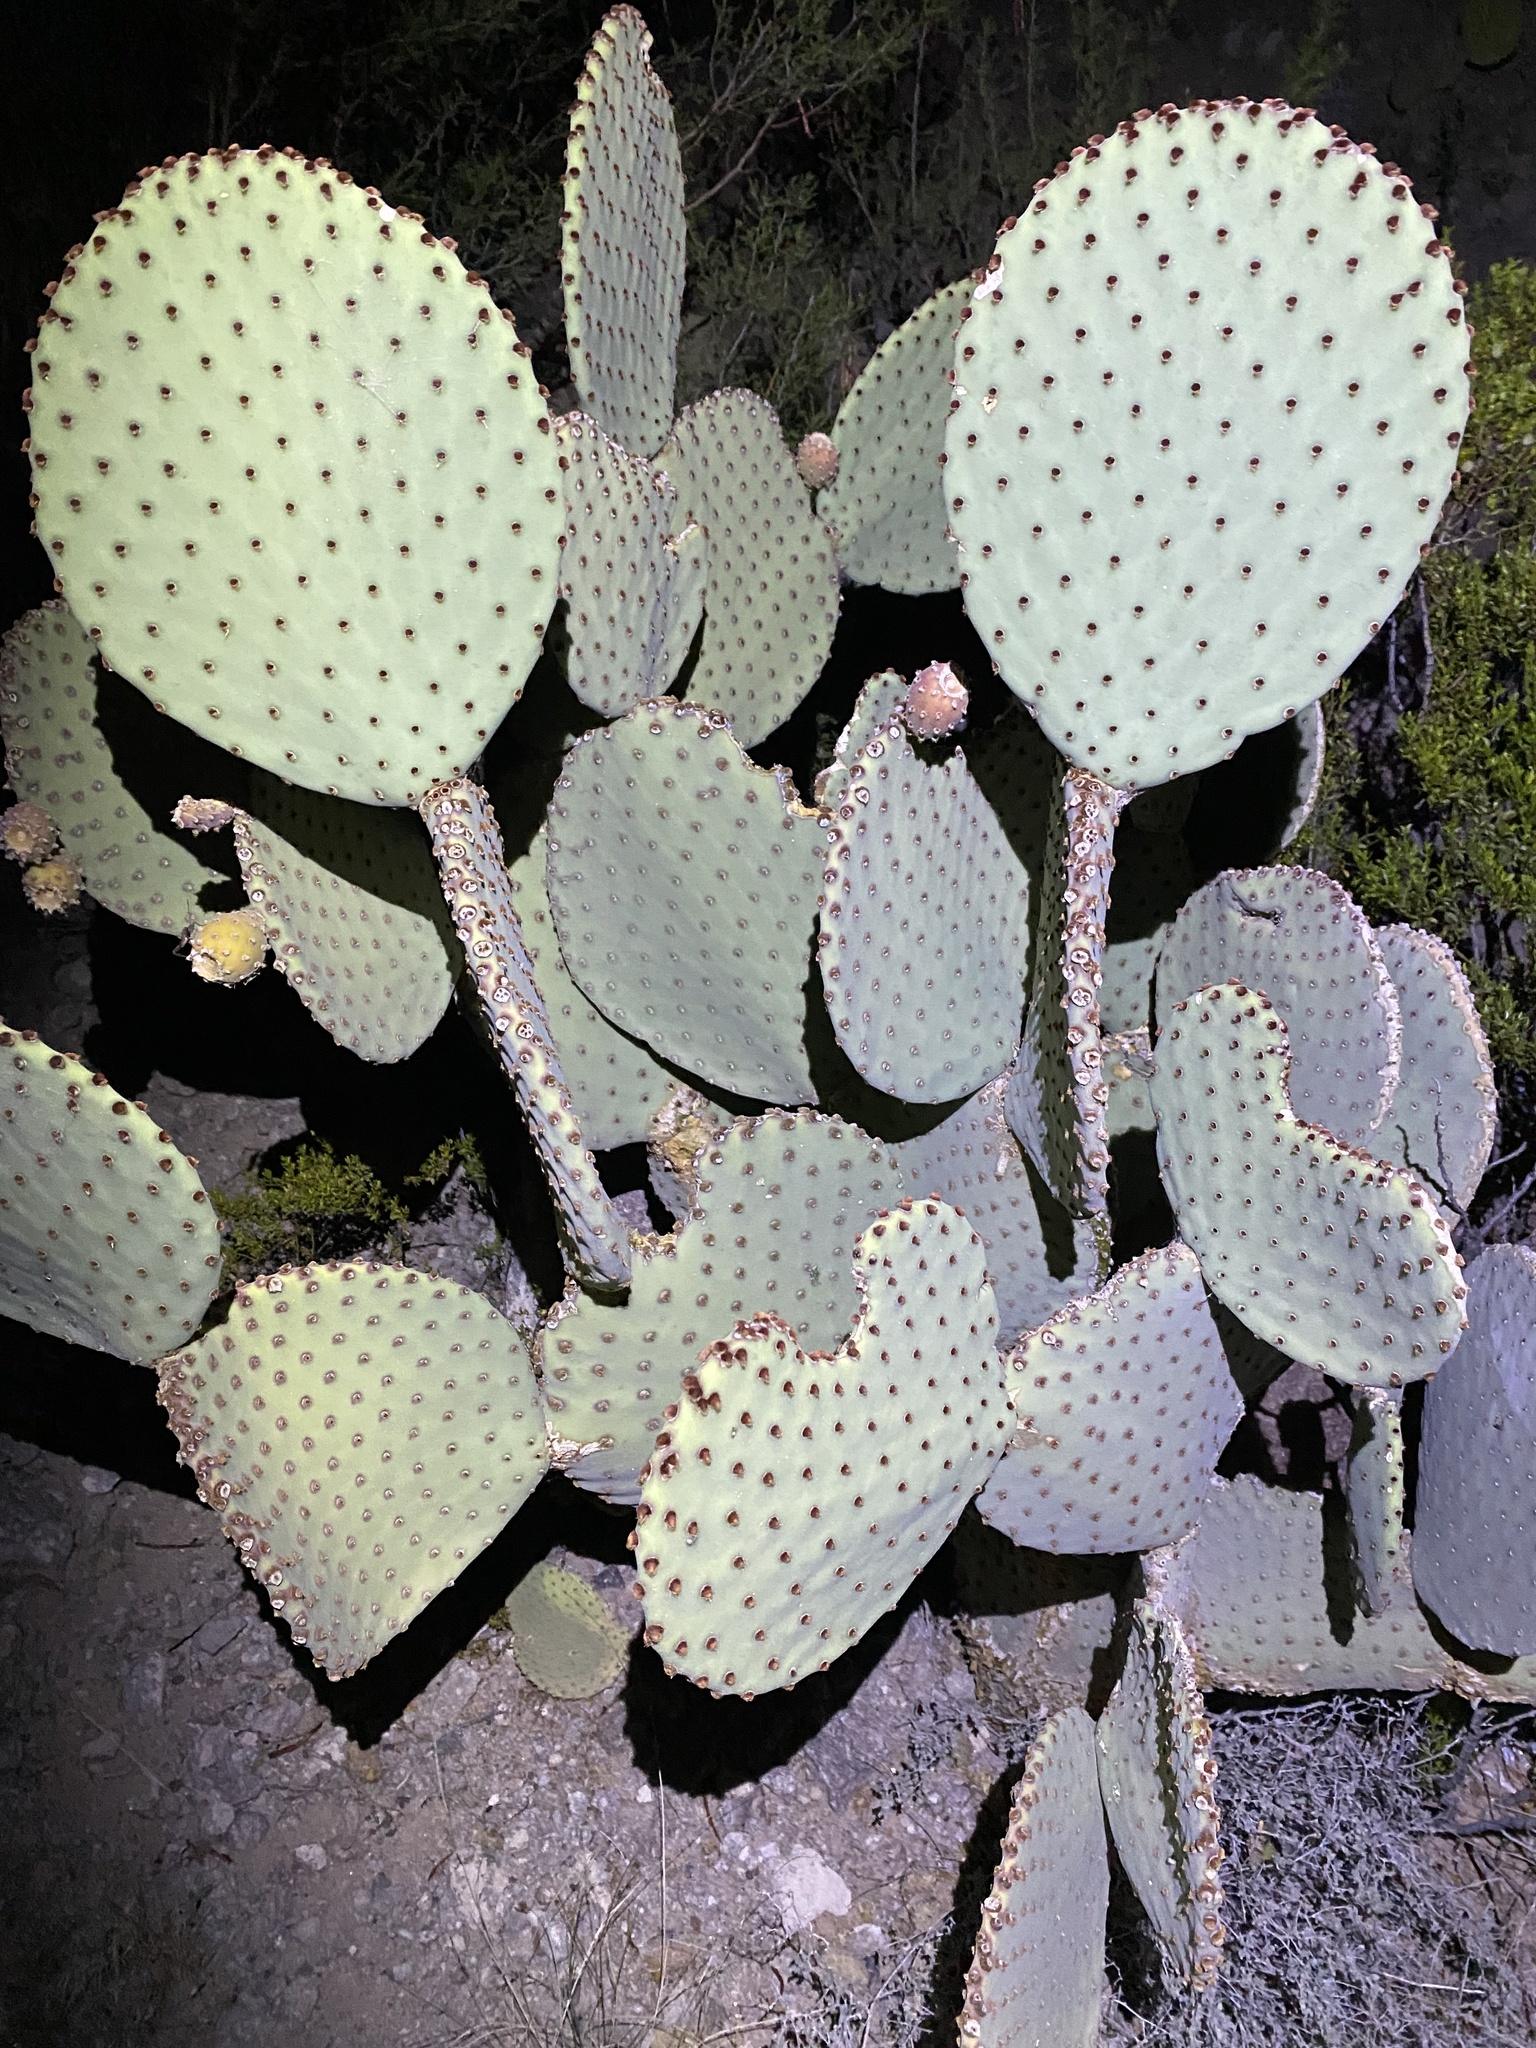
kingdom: Plantae
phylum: Tracheophyta
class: Magnoliopsida
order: Caryophyllales
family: Cactaceae
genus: Opuntia
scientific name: Opuntia rufida
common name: Blind pricklypear
